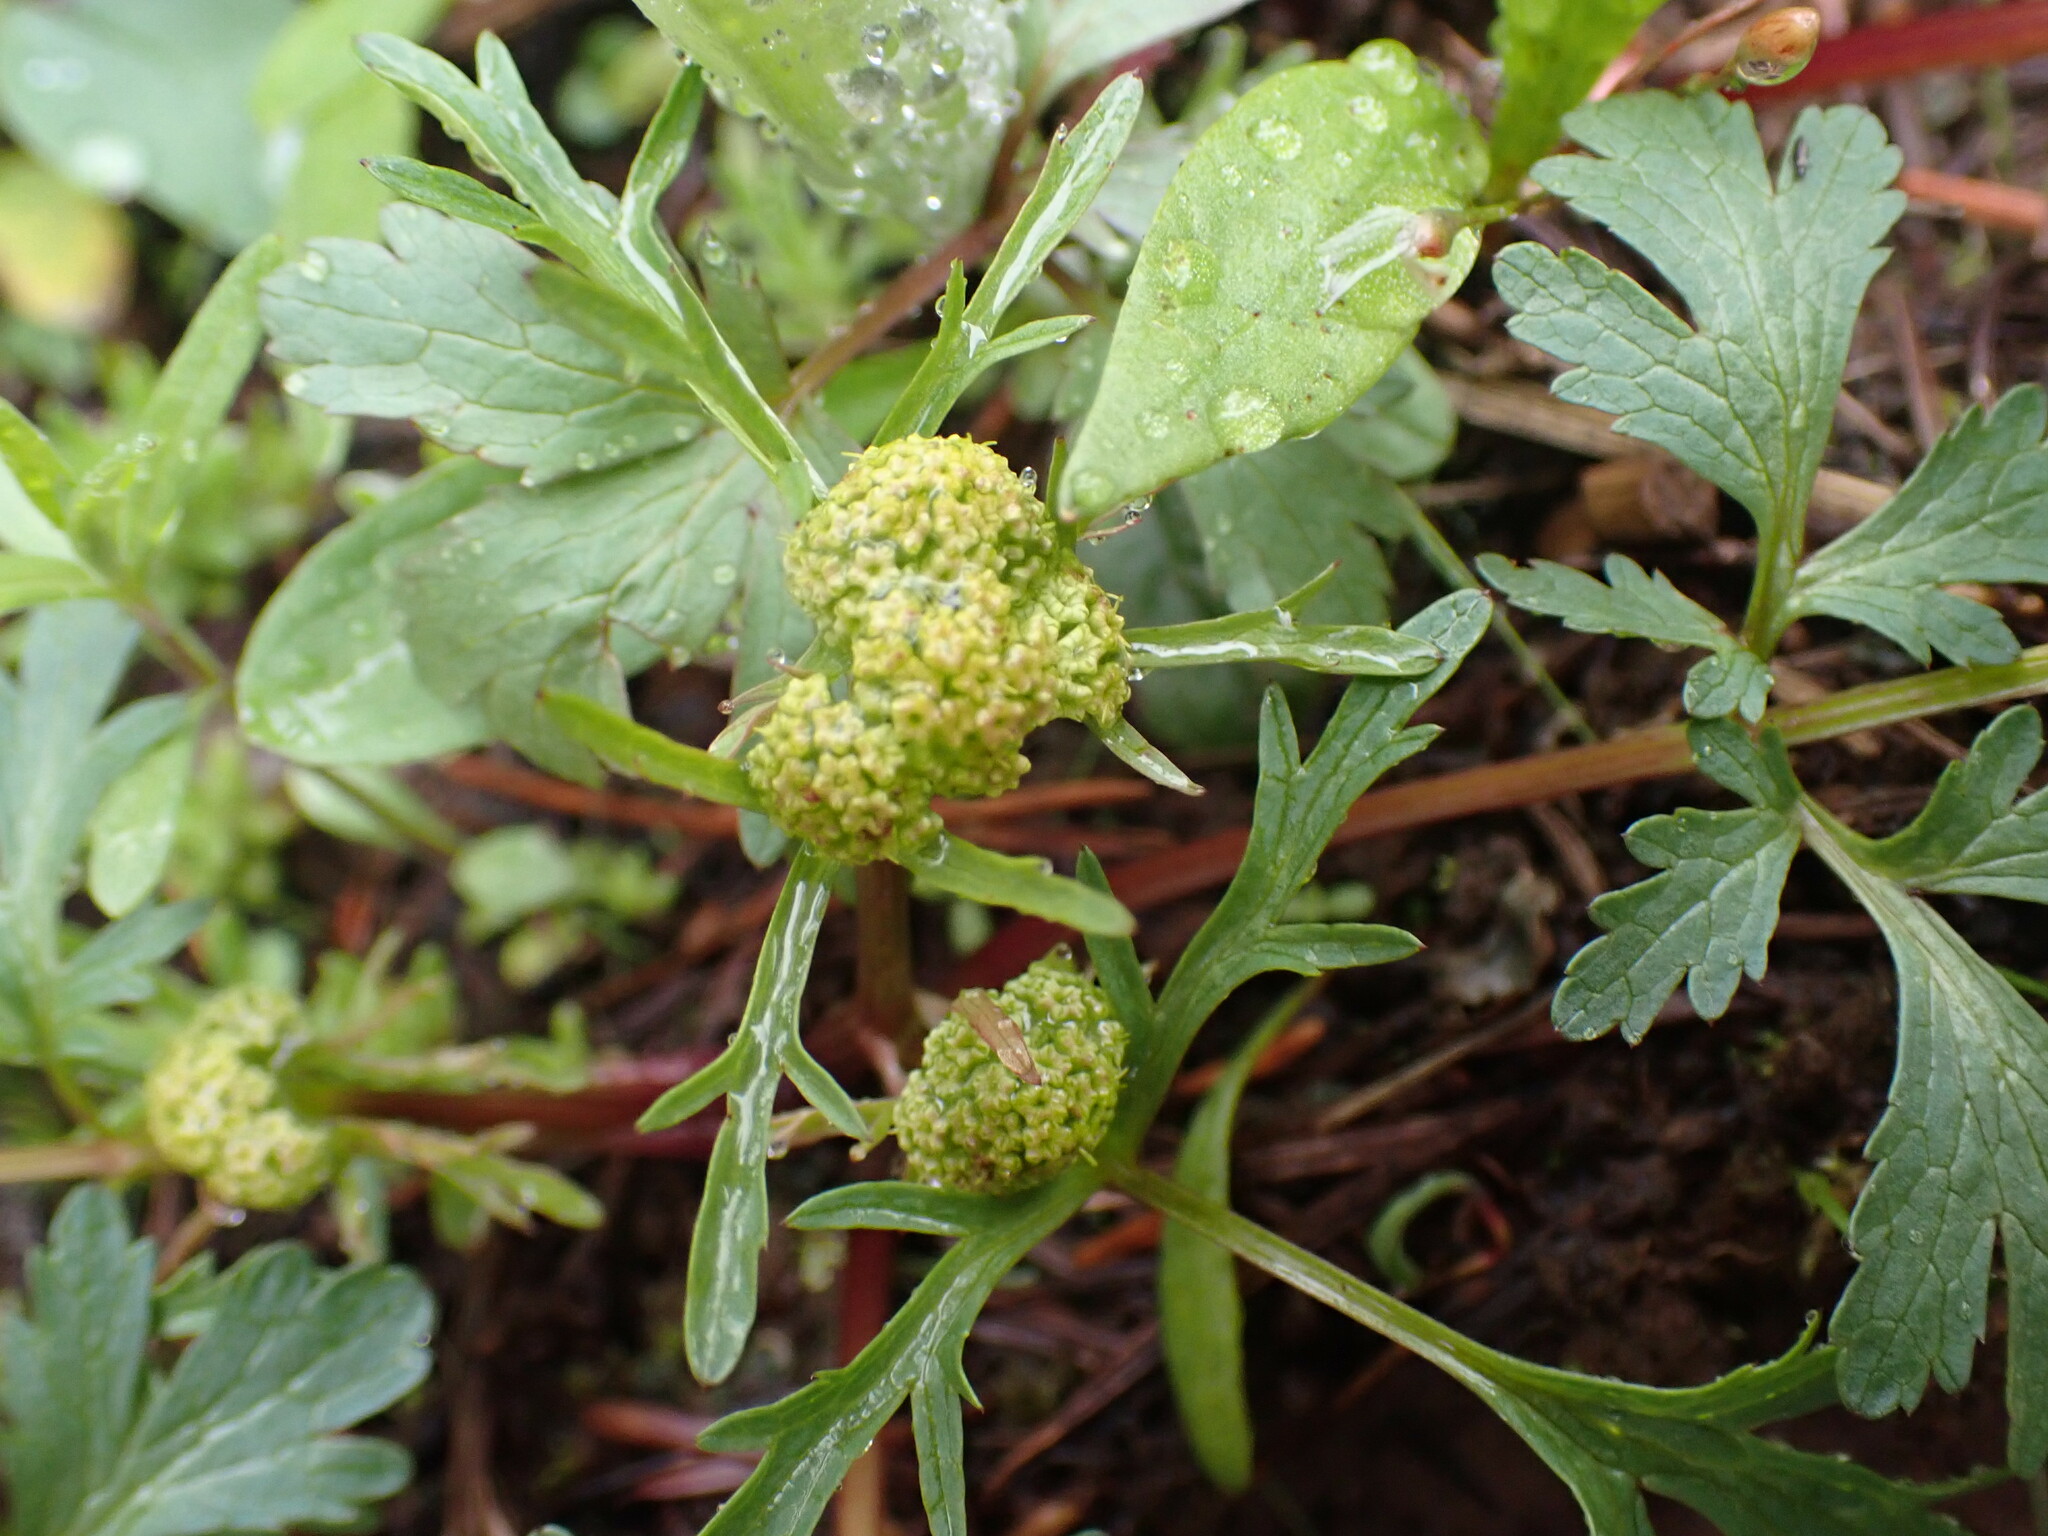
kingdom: Plantae
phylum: Tracheophyta
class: Magnoliopsida
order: Apiales
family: Apiaceae
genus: Sanicula
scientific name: Sanicula graveolens
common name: Sierra sanicle
